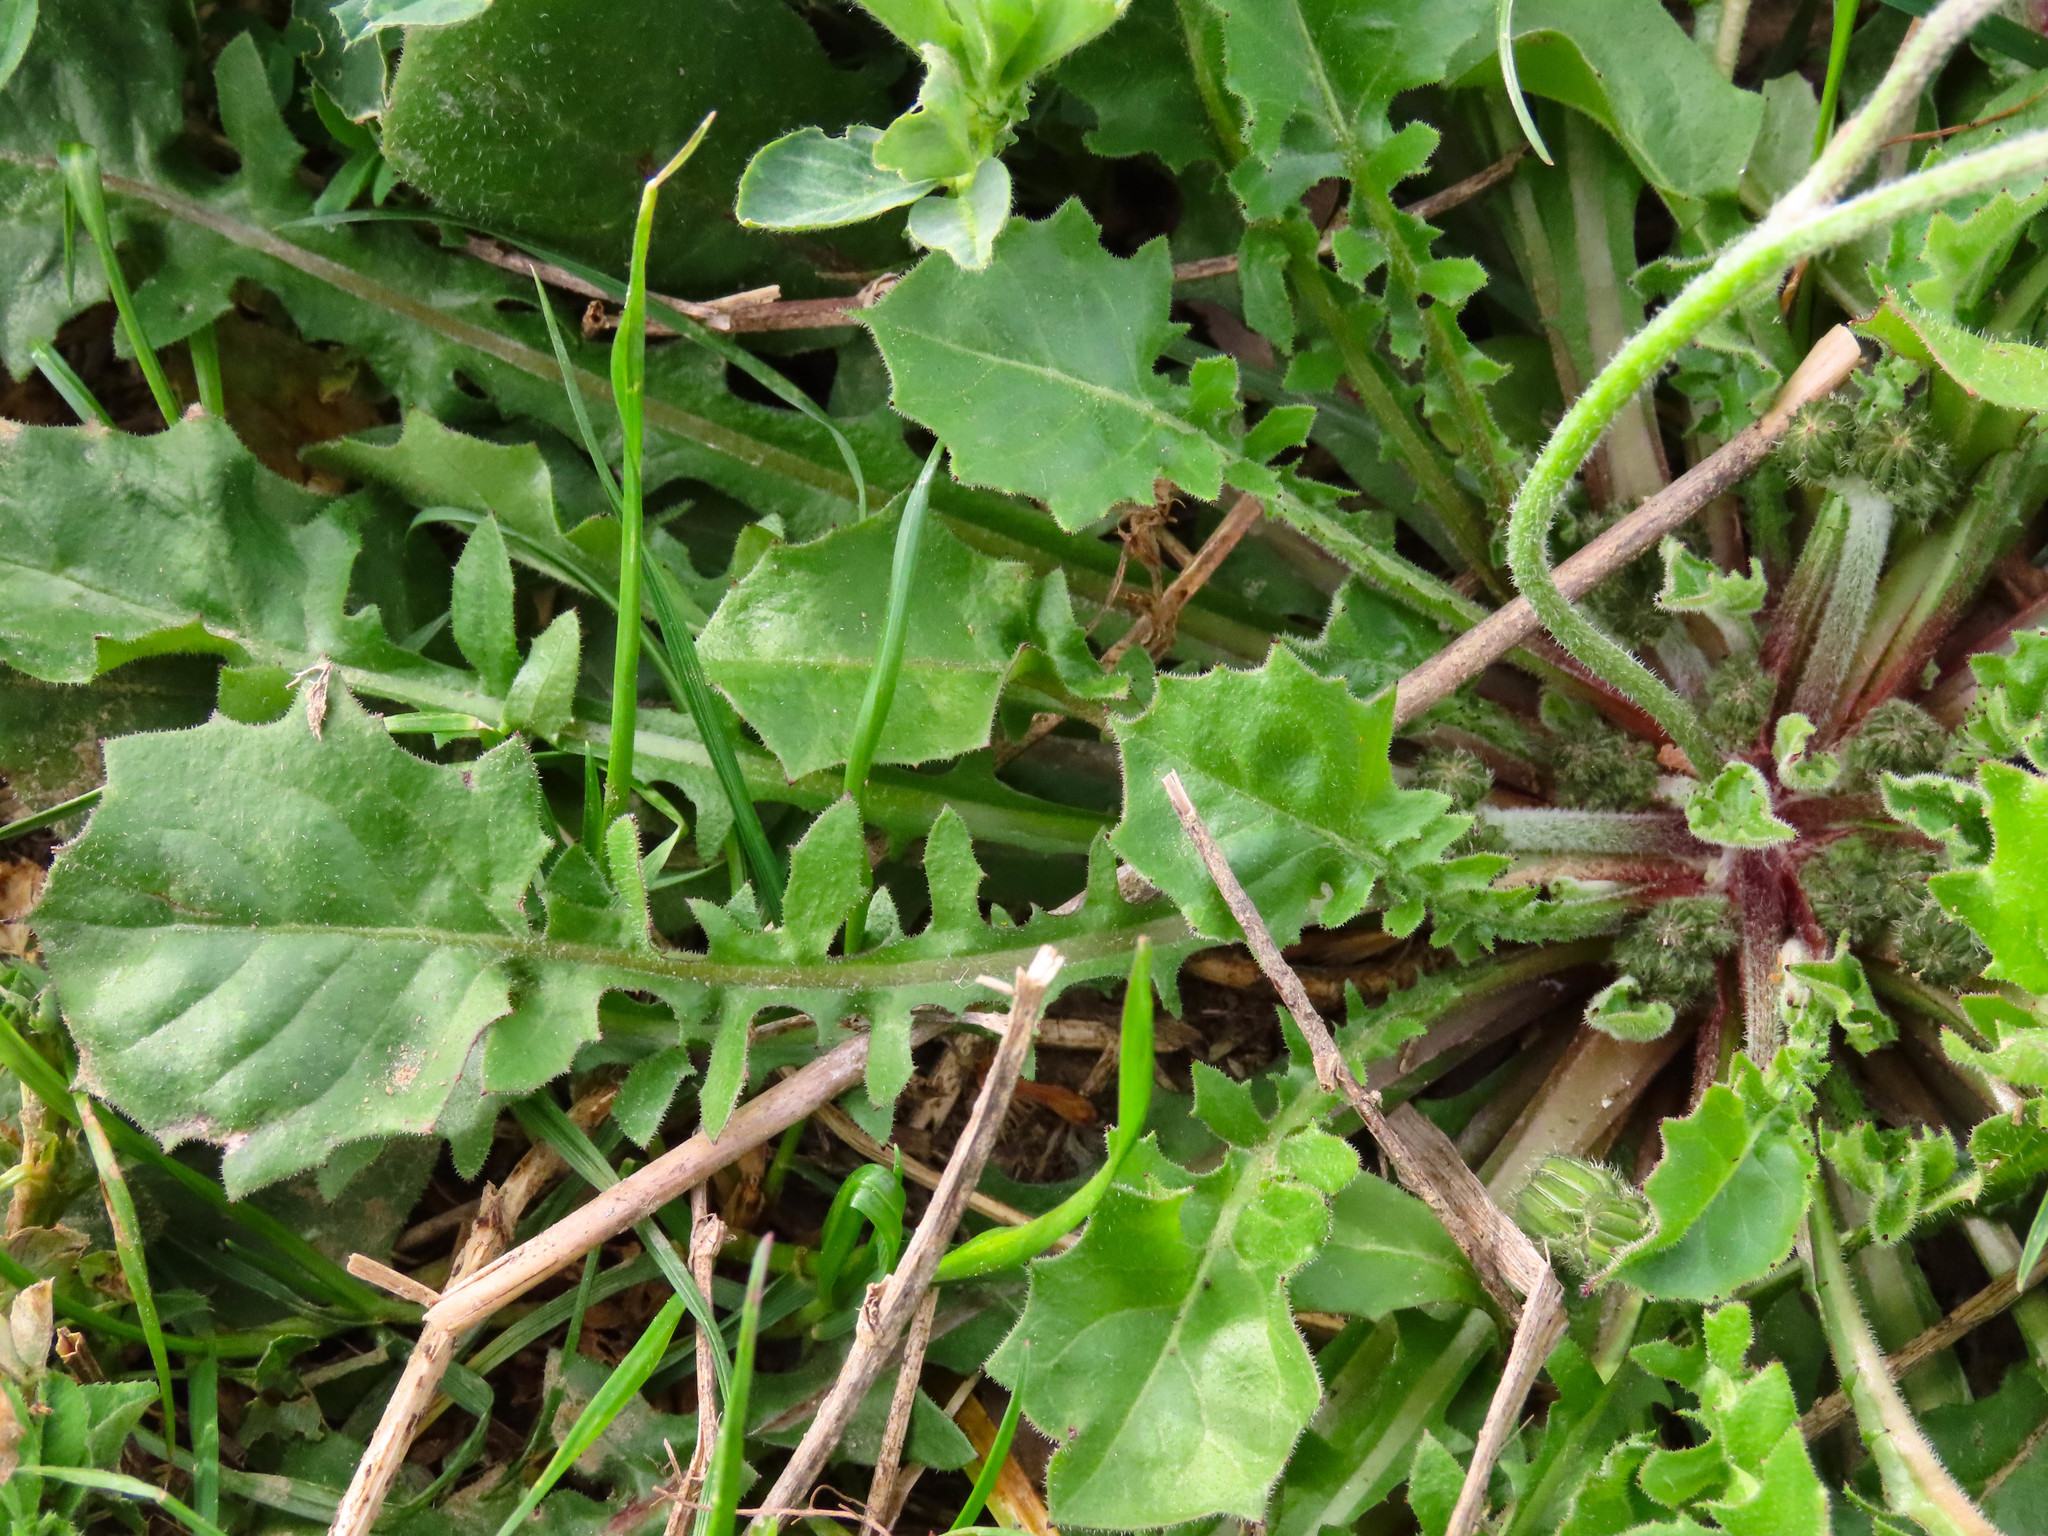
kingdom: Plantae
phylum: Tracheophyta
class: Magnoliopsida
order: Asterales
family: Asteraceae
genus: Crepis
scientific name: Crepis sancta
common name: Hawk's-beard
